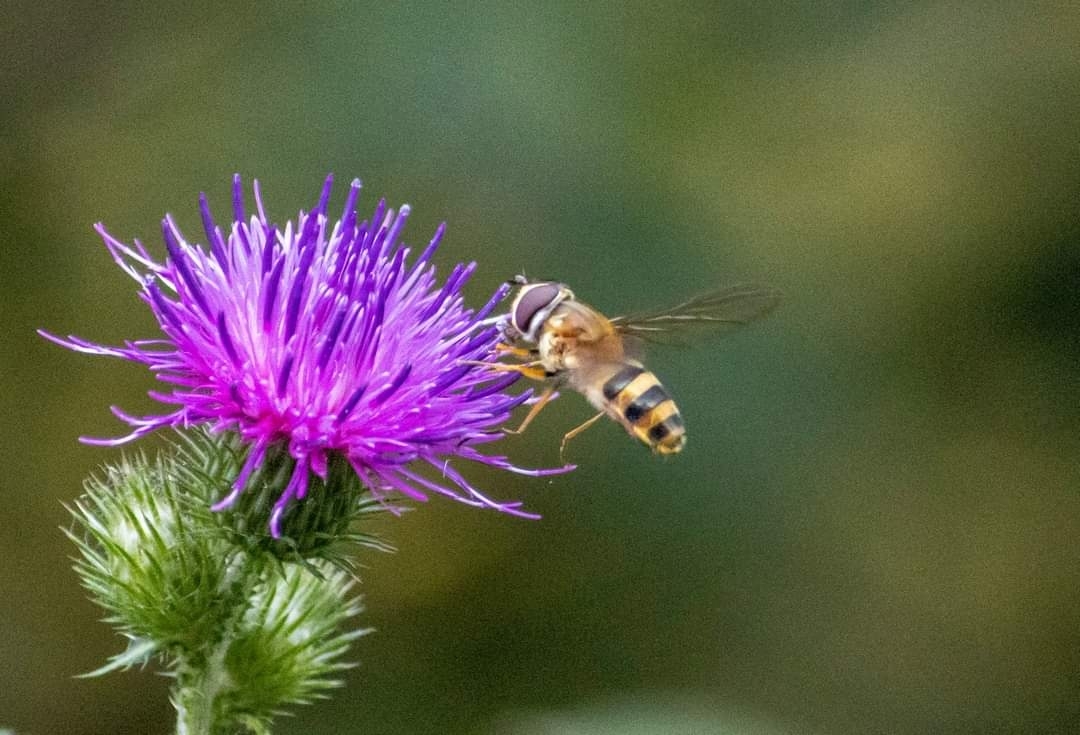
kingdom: Animalia
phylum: Arthropoda
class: Insecta
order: Diptera
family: Syrphidae
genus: Epistrophe
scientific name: Epistrophe grossulariae
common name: Black-horned smoothtail
